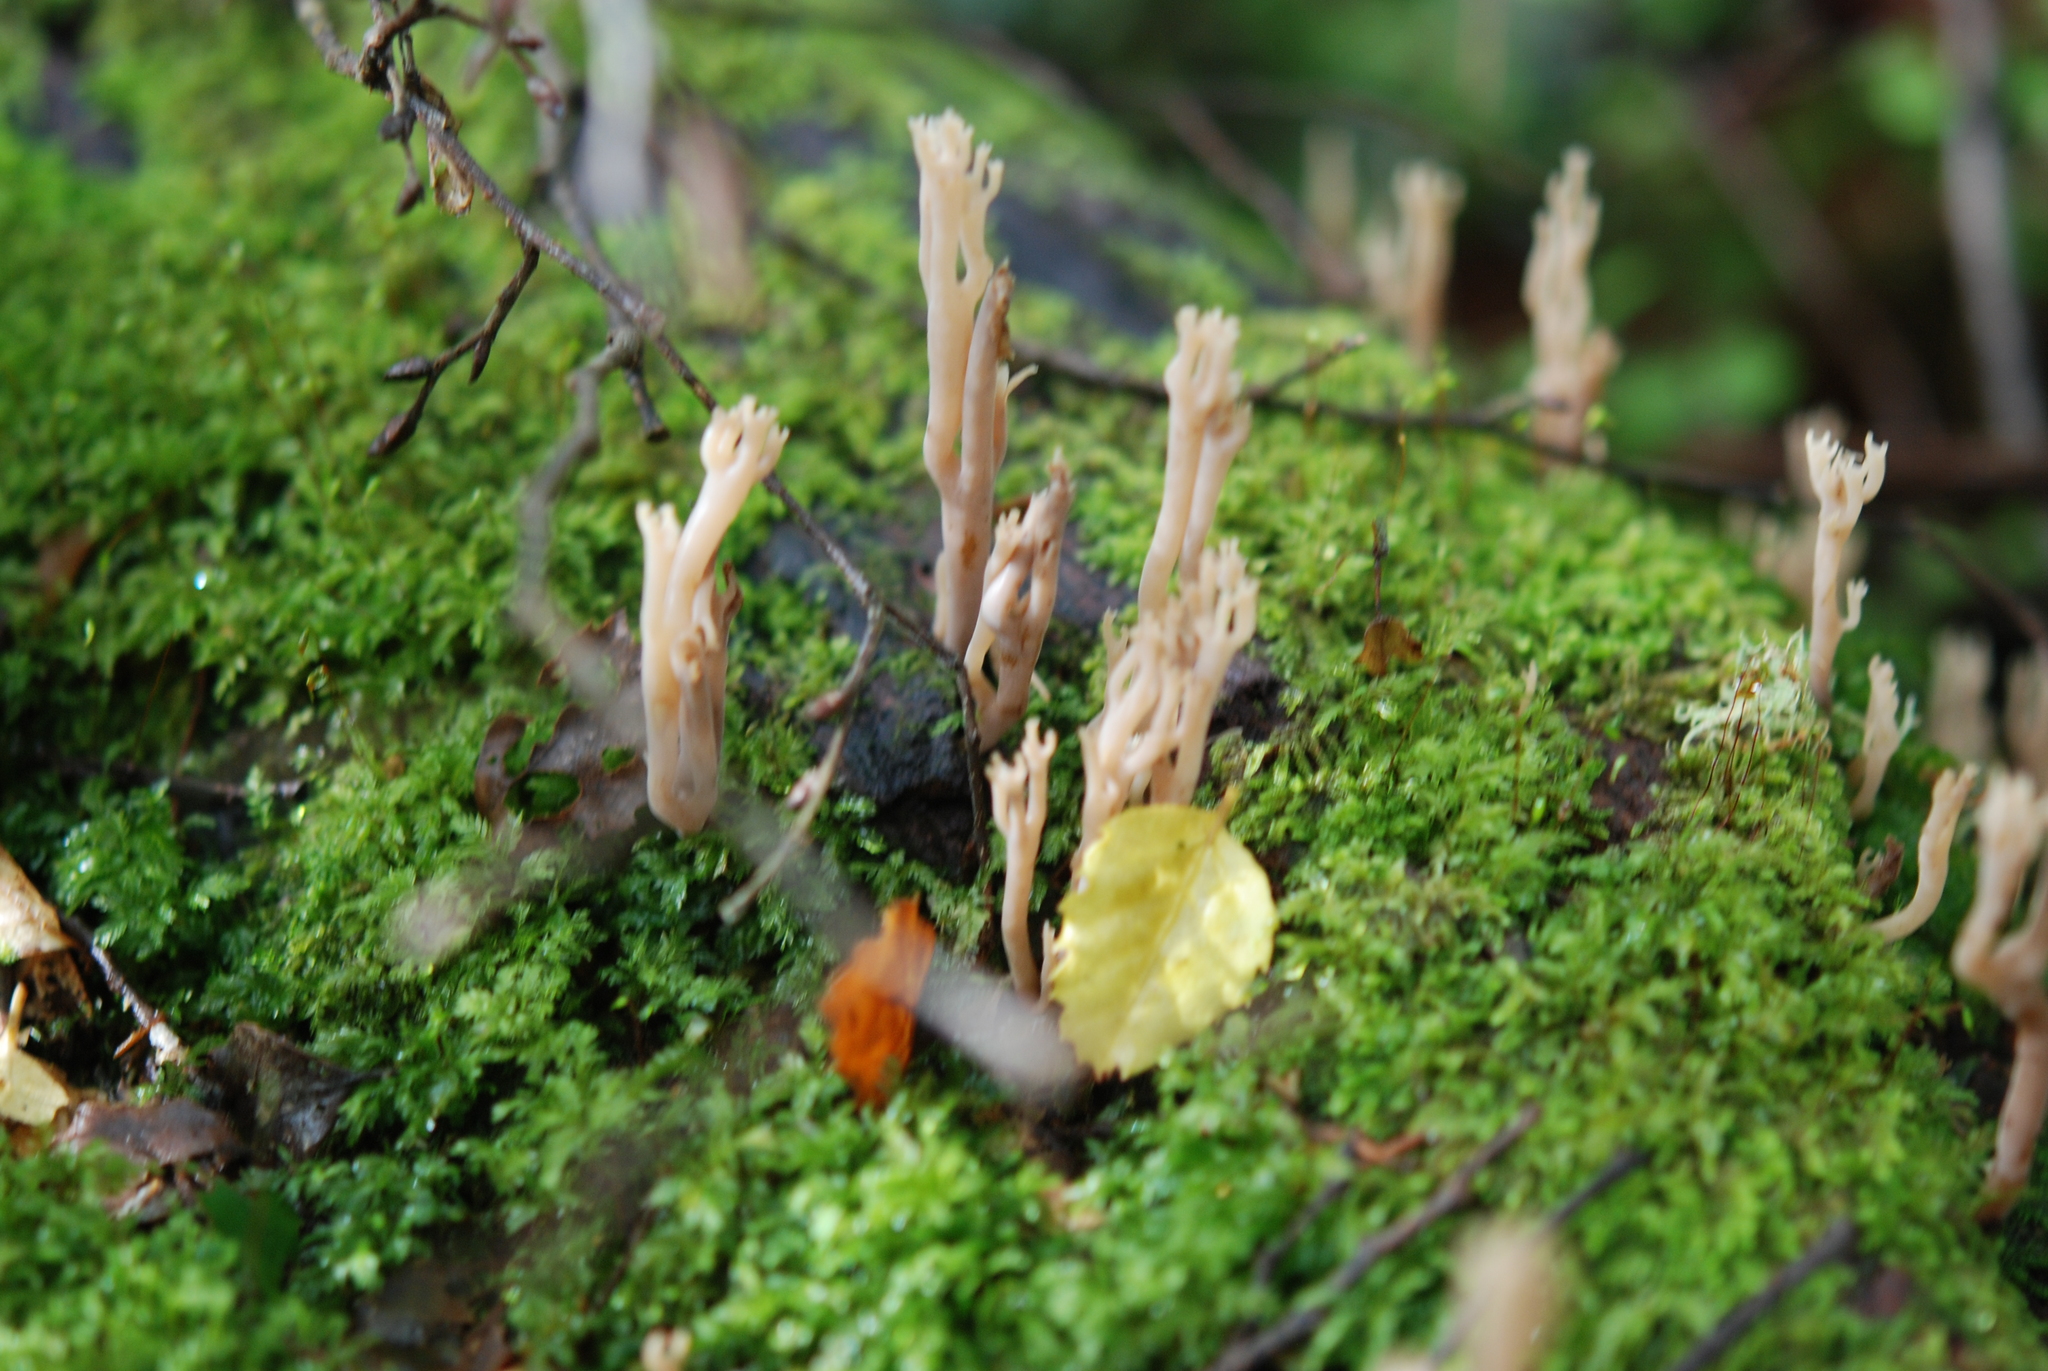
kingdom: Fungi
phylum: Basidiomycota
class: Agaricomycetes
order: Russulales
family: Auriscalpiaceae
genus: Artomyces
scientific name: Artomyces turgidus
